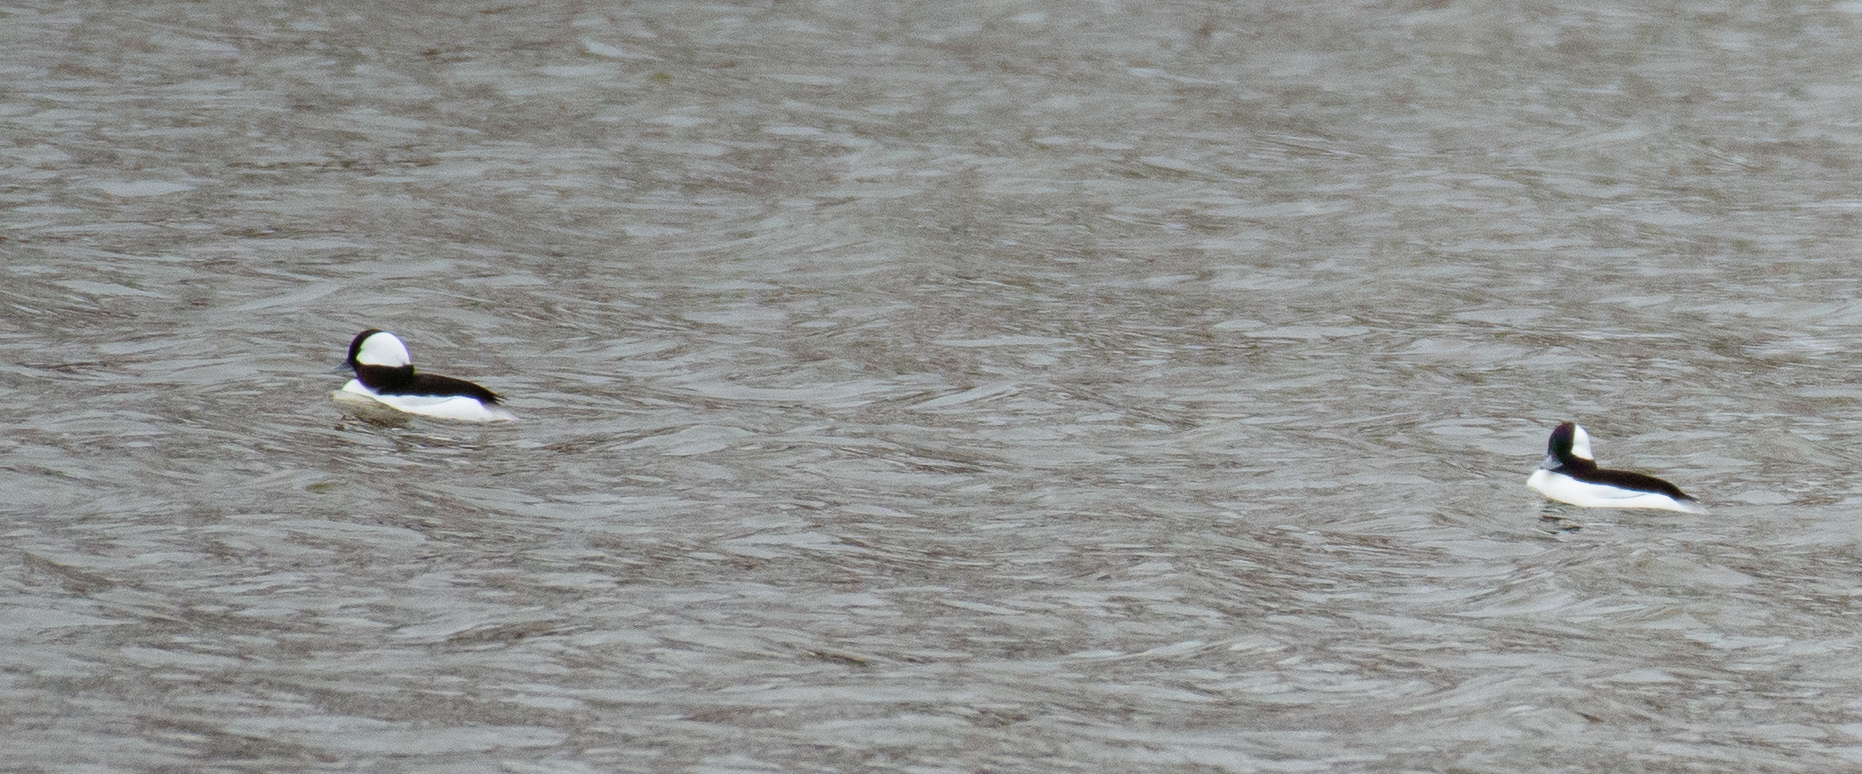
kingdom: Animalia
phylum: Chordata
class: Aves
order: Anseriformes
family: Anatidae
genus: Bucephala
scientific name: Bucephala albeola
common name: Bufflehead
